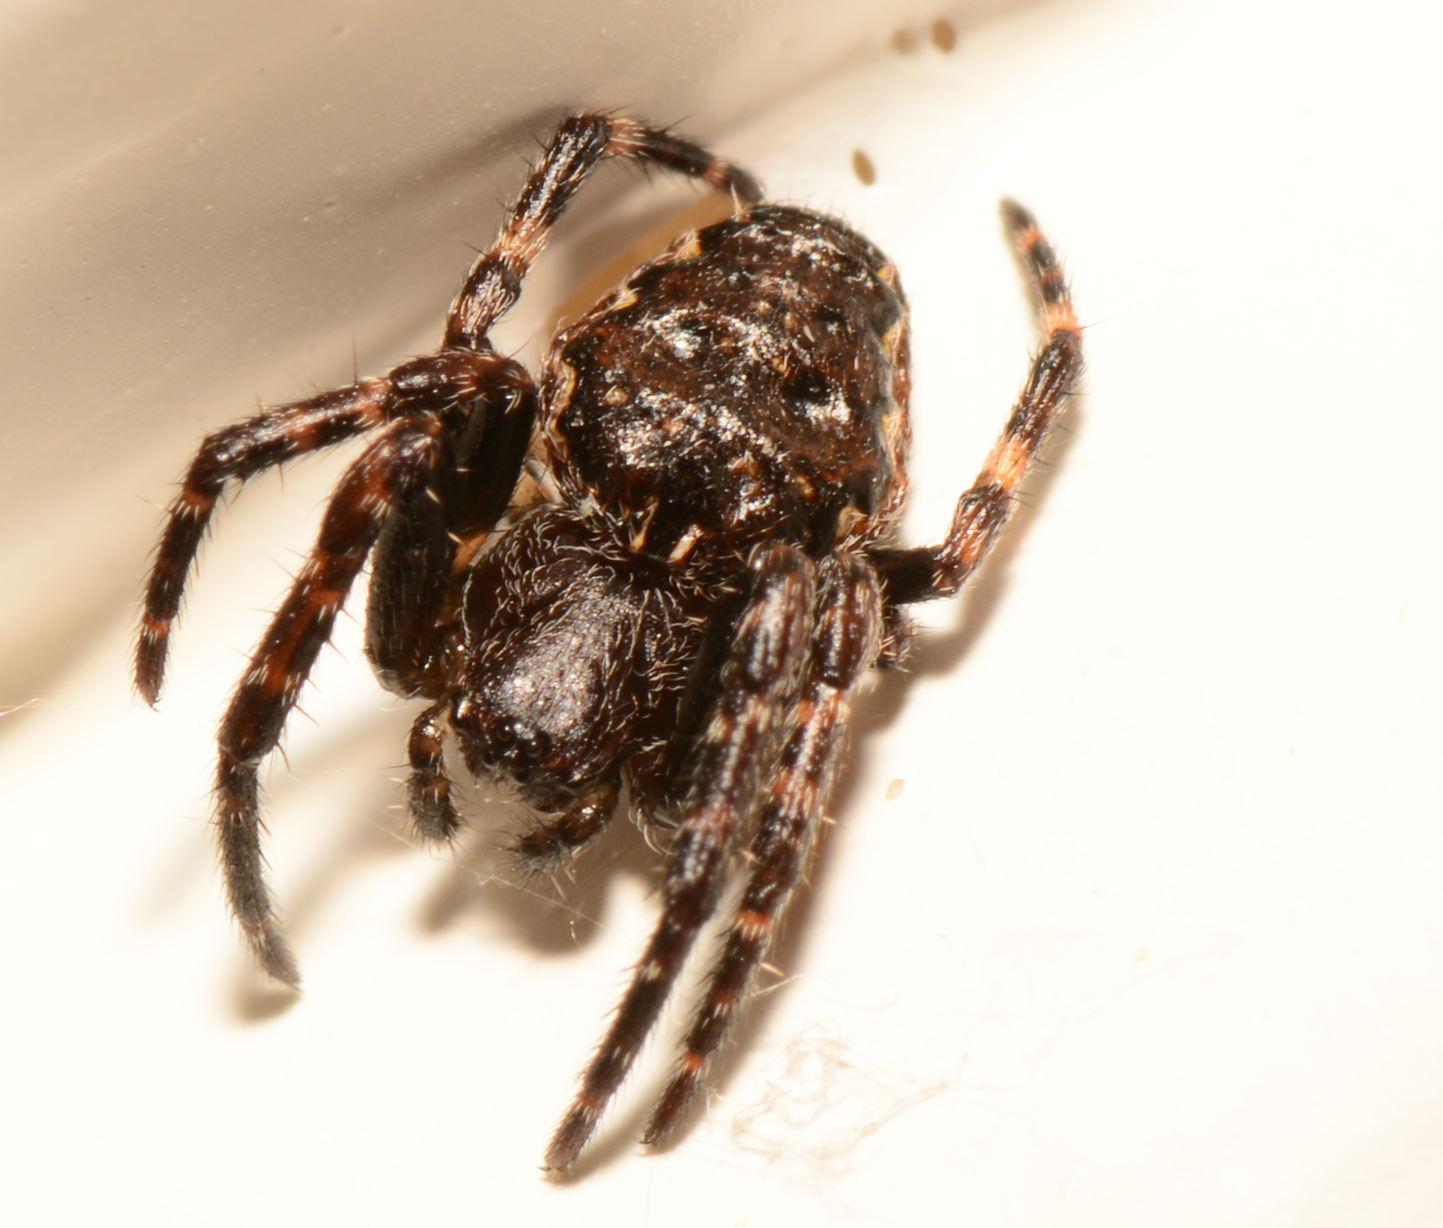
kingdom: Animalia
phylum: Arthropoda
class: Arachnida
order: Araneae
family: Araneidae
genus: Nuctenea
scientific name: Nuctenea umbratica
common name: Toad spider
